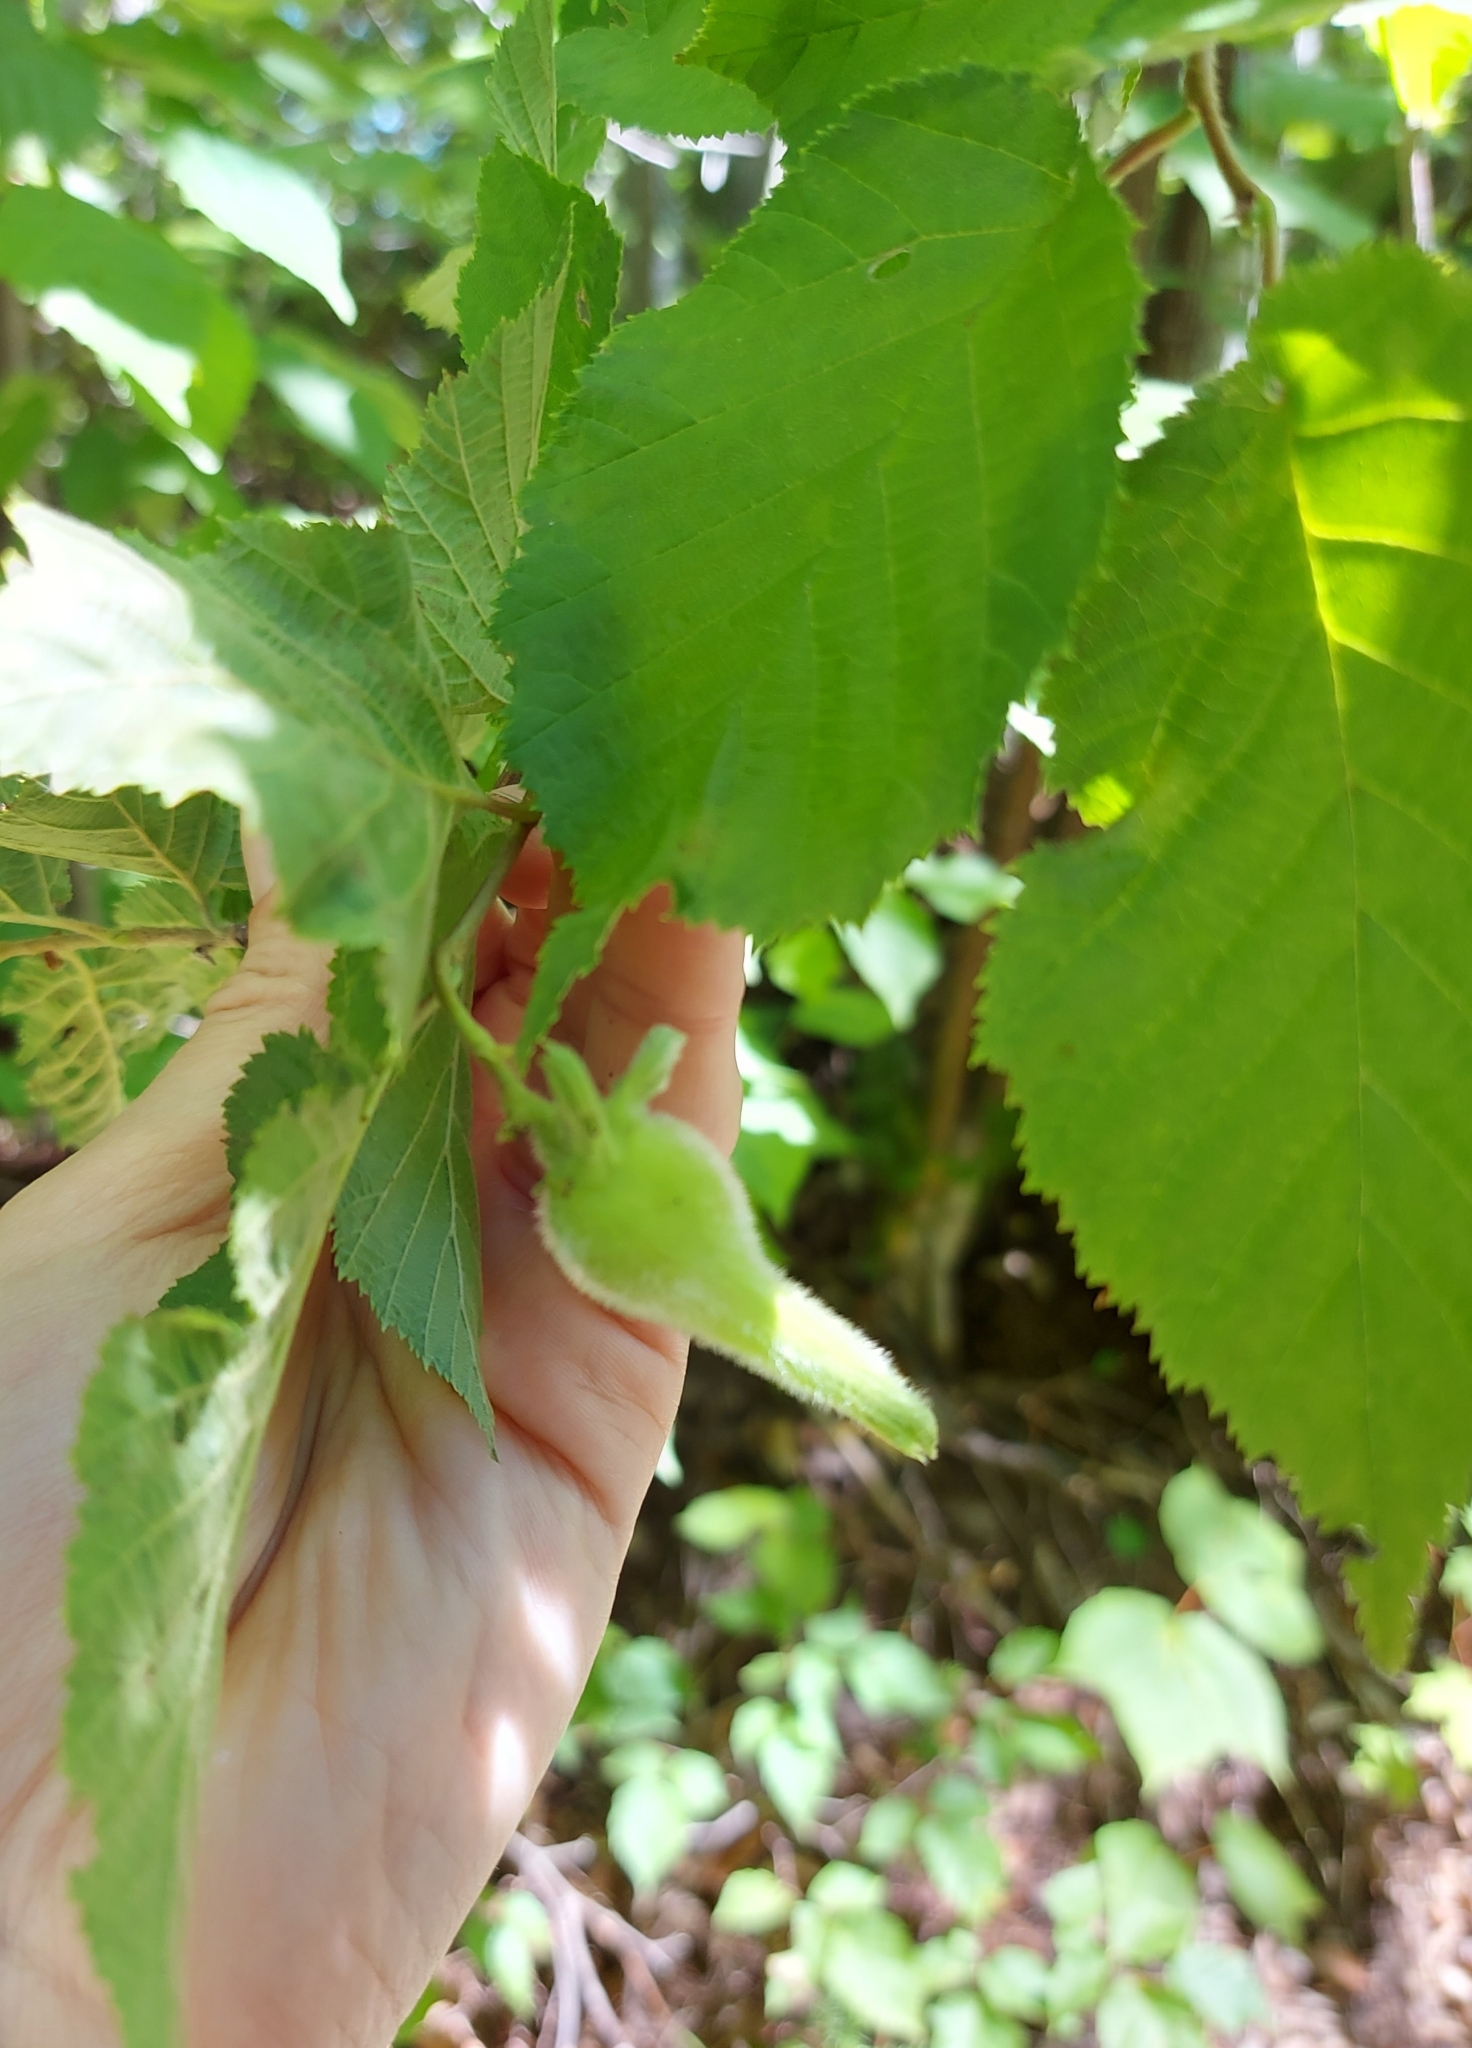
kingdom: Plantae
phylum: Tracheophyta
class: Magnoliopsida
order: Fagales
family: Betulaceae
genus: Corylus
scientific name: Corylus cornuta
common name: Beaked hazel
